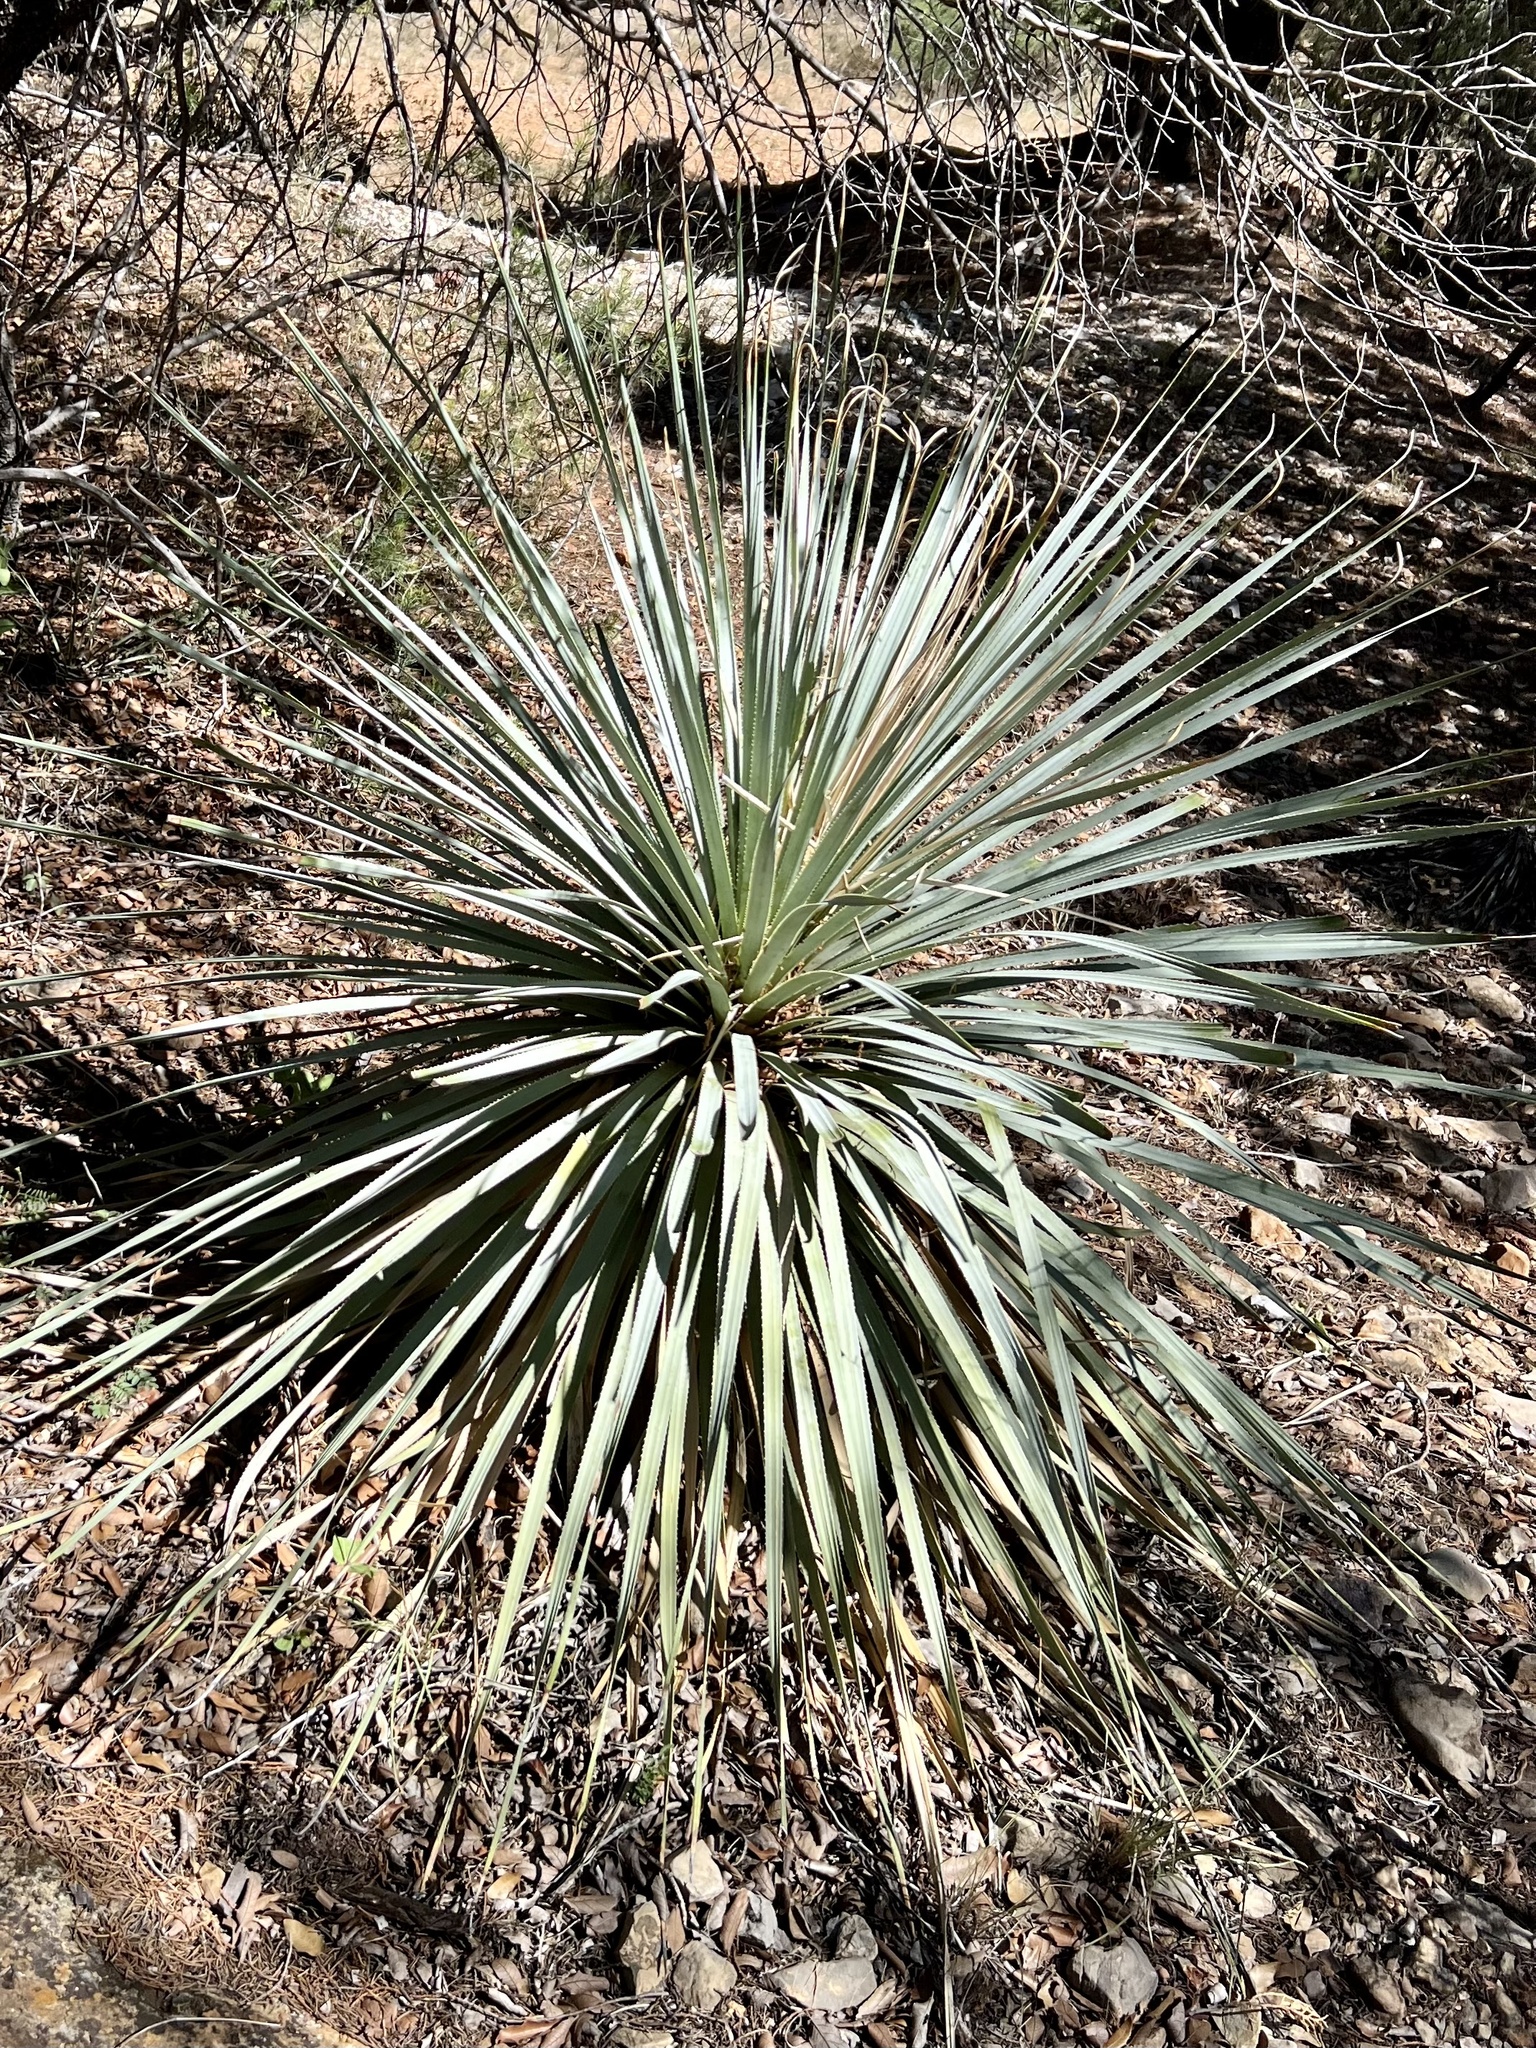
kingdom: Plantae
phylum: Tracheophyta
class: Liliopsida
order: Asparagales
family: Asparagaceae
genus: Dasylirion
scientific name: Dasylirion wheeleri
